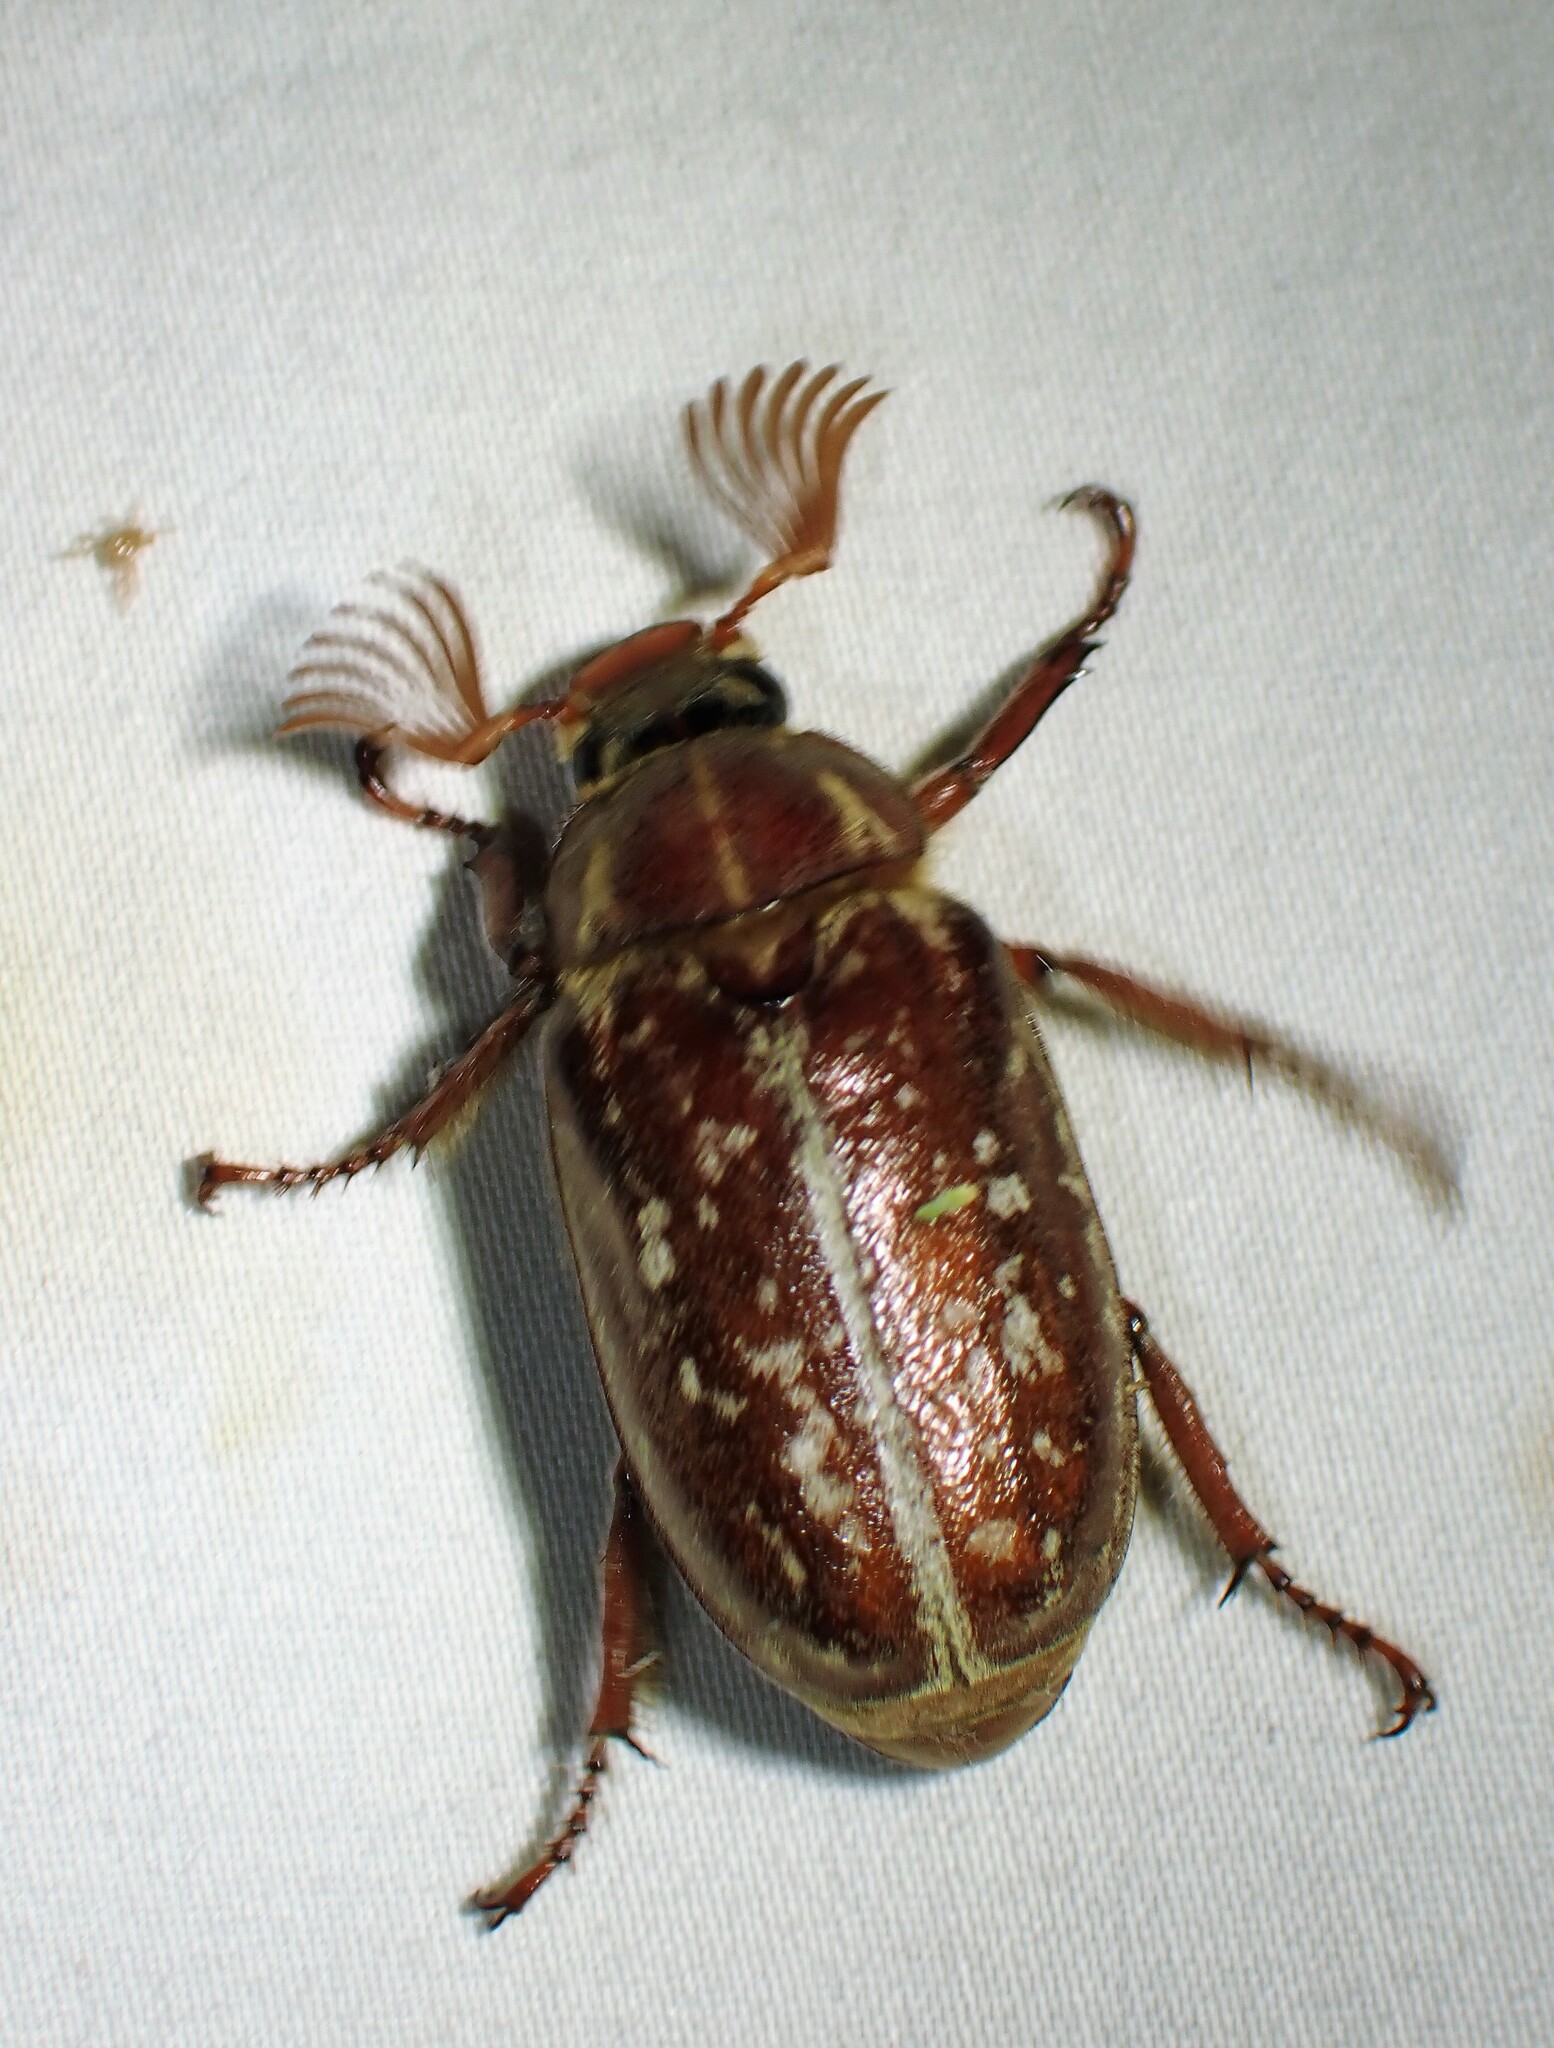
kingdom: Animalia
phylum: Arthropoda
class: Insecta
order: Coleoptera
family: Scarabaeidae
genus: Polyphylla
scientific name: Polyphylla variolosa
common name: Variegated june beetle
